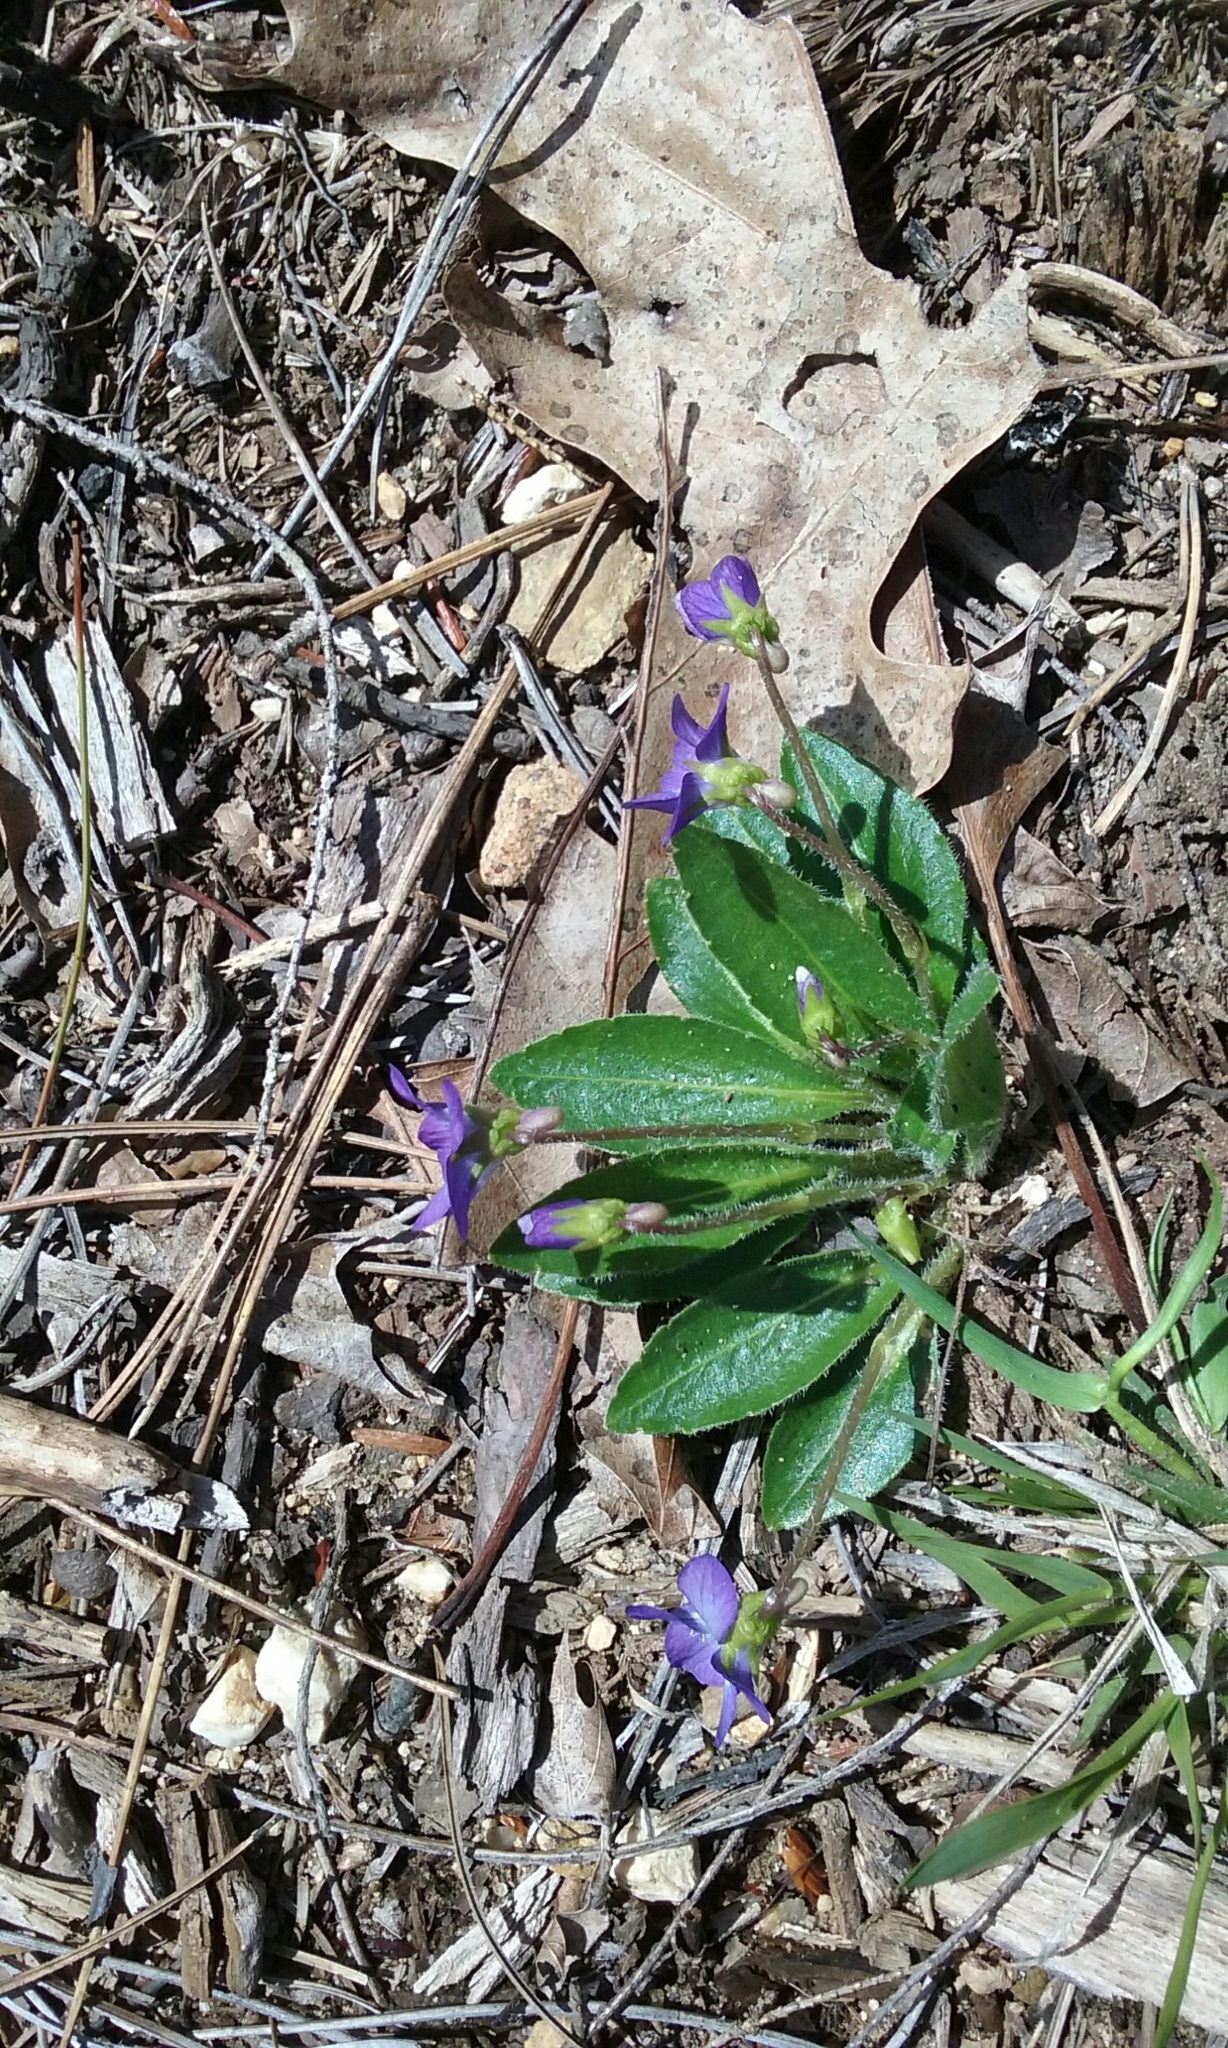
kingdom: Plantae
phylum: Tracheophyta
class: Magnoliopsida
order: Malpighiales
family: Violaceae
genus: Viola
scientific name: Viola fimbriatula
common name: Sand violet
